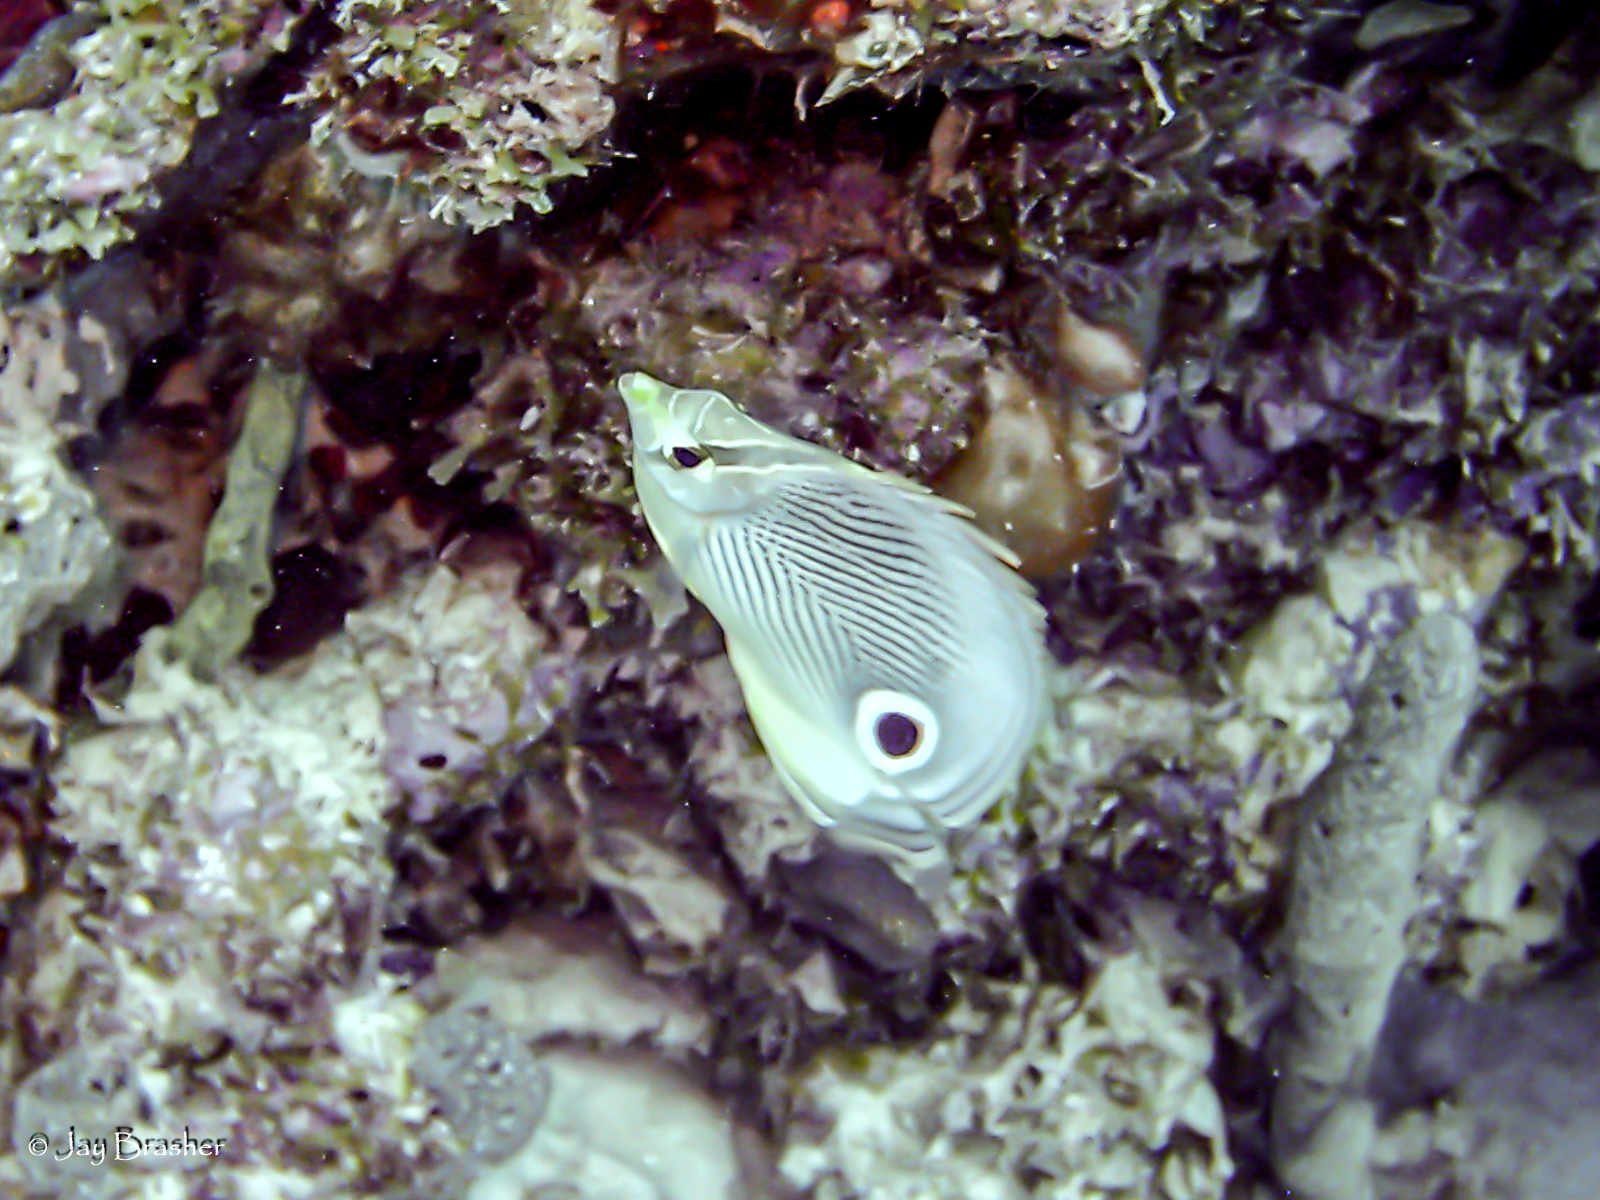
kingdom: Animalia
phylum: Chordata
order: Perciformes
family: Chaetodontidae
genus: Chaetodon
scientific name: Chaetodon capistratus
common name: Kete
